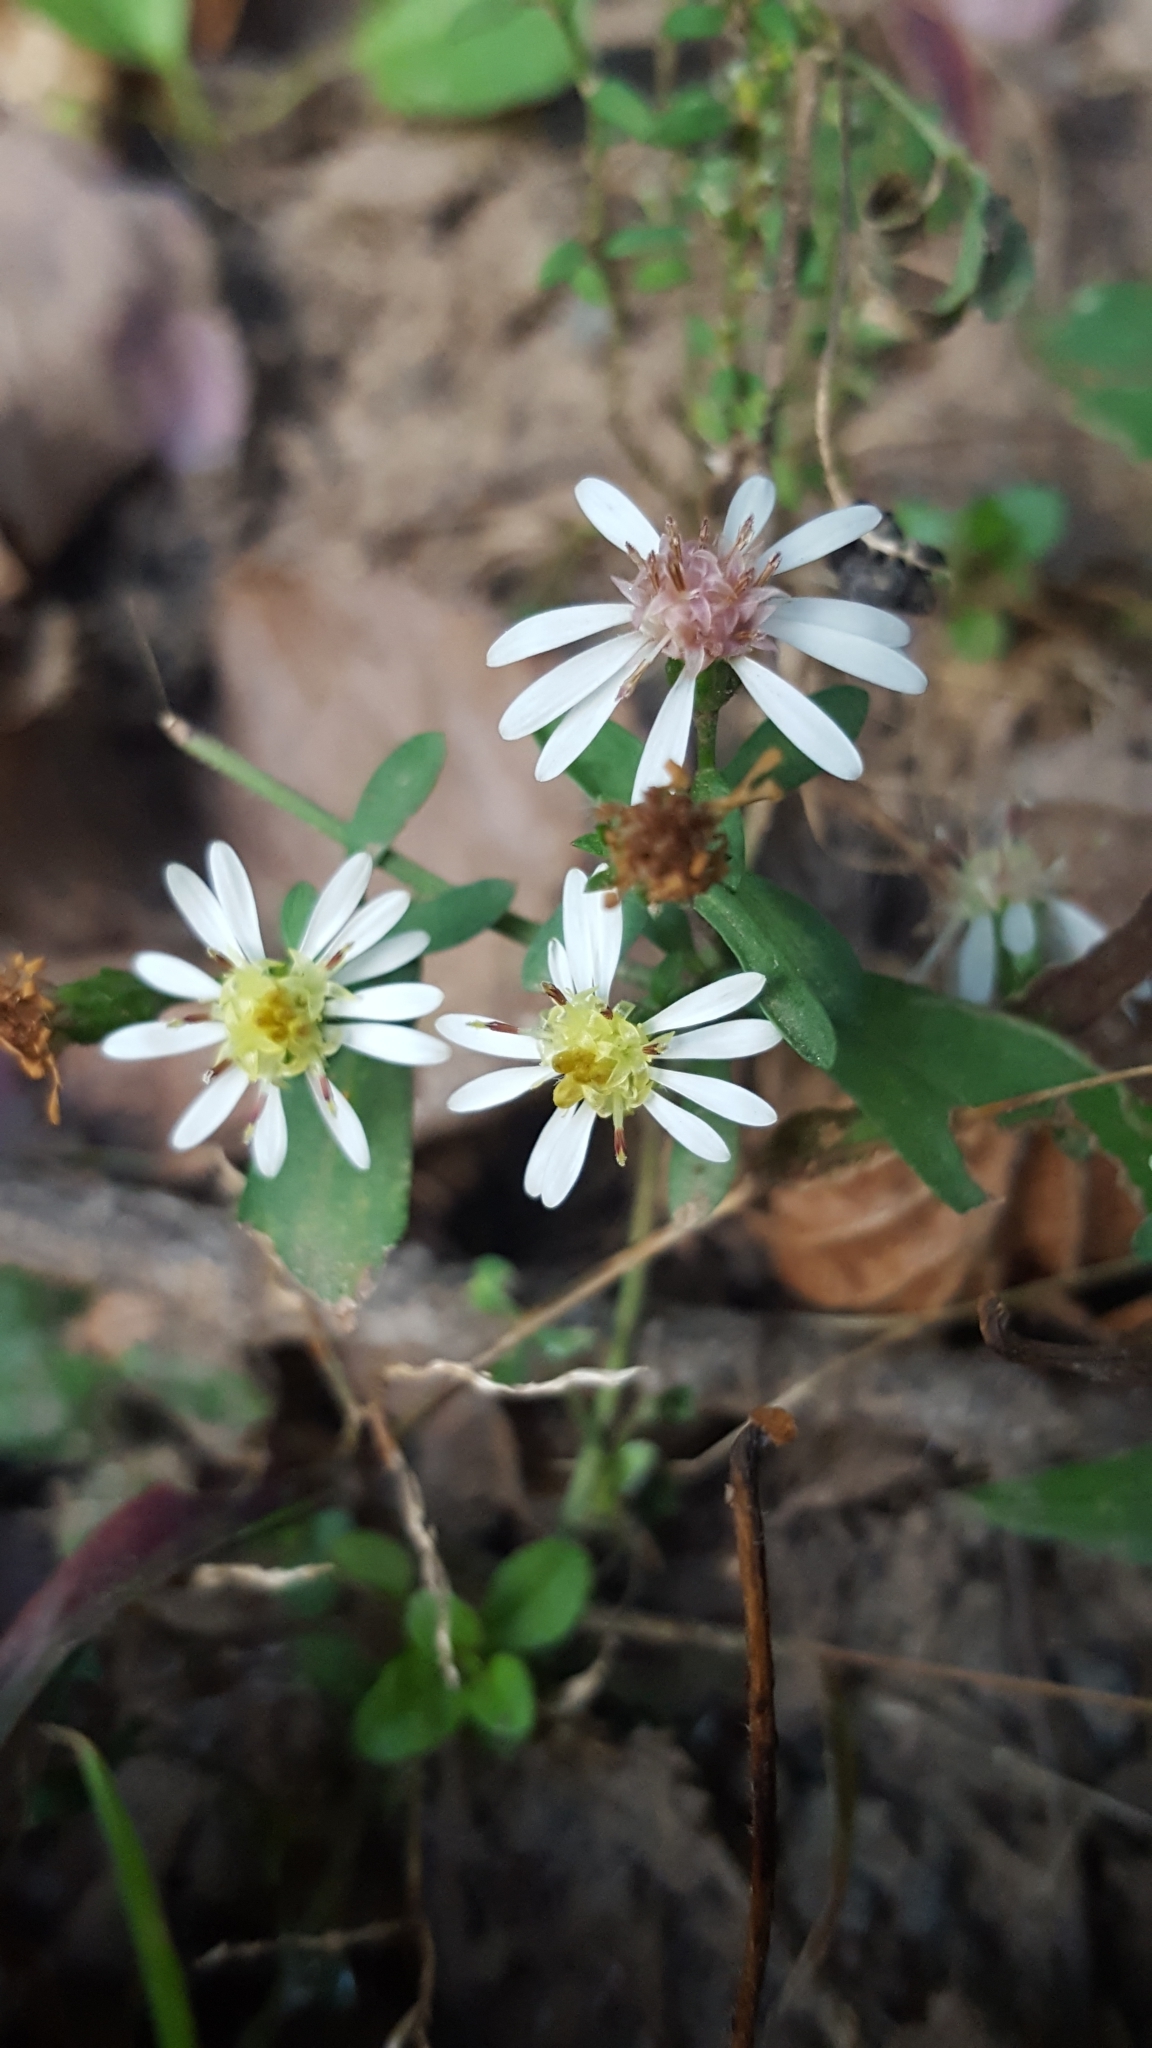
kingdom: Plantae
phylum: Tracheophyta
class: Magnoliopsida
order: Asterales
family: Asteraceae
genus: Symphyotrichum
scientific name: Symphyotrichum lateriflorum
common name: Calico aster
